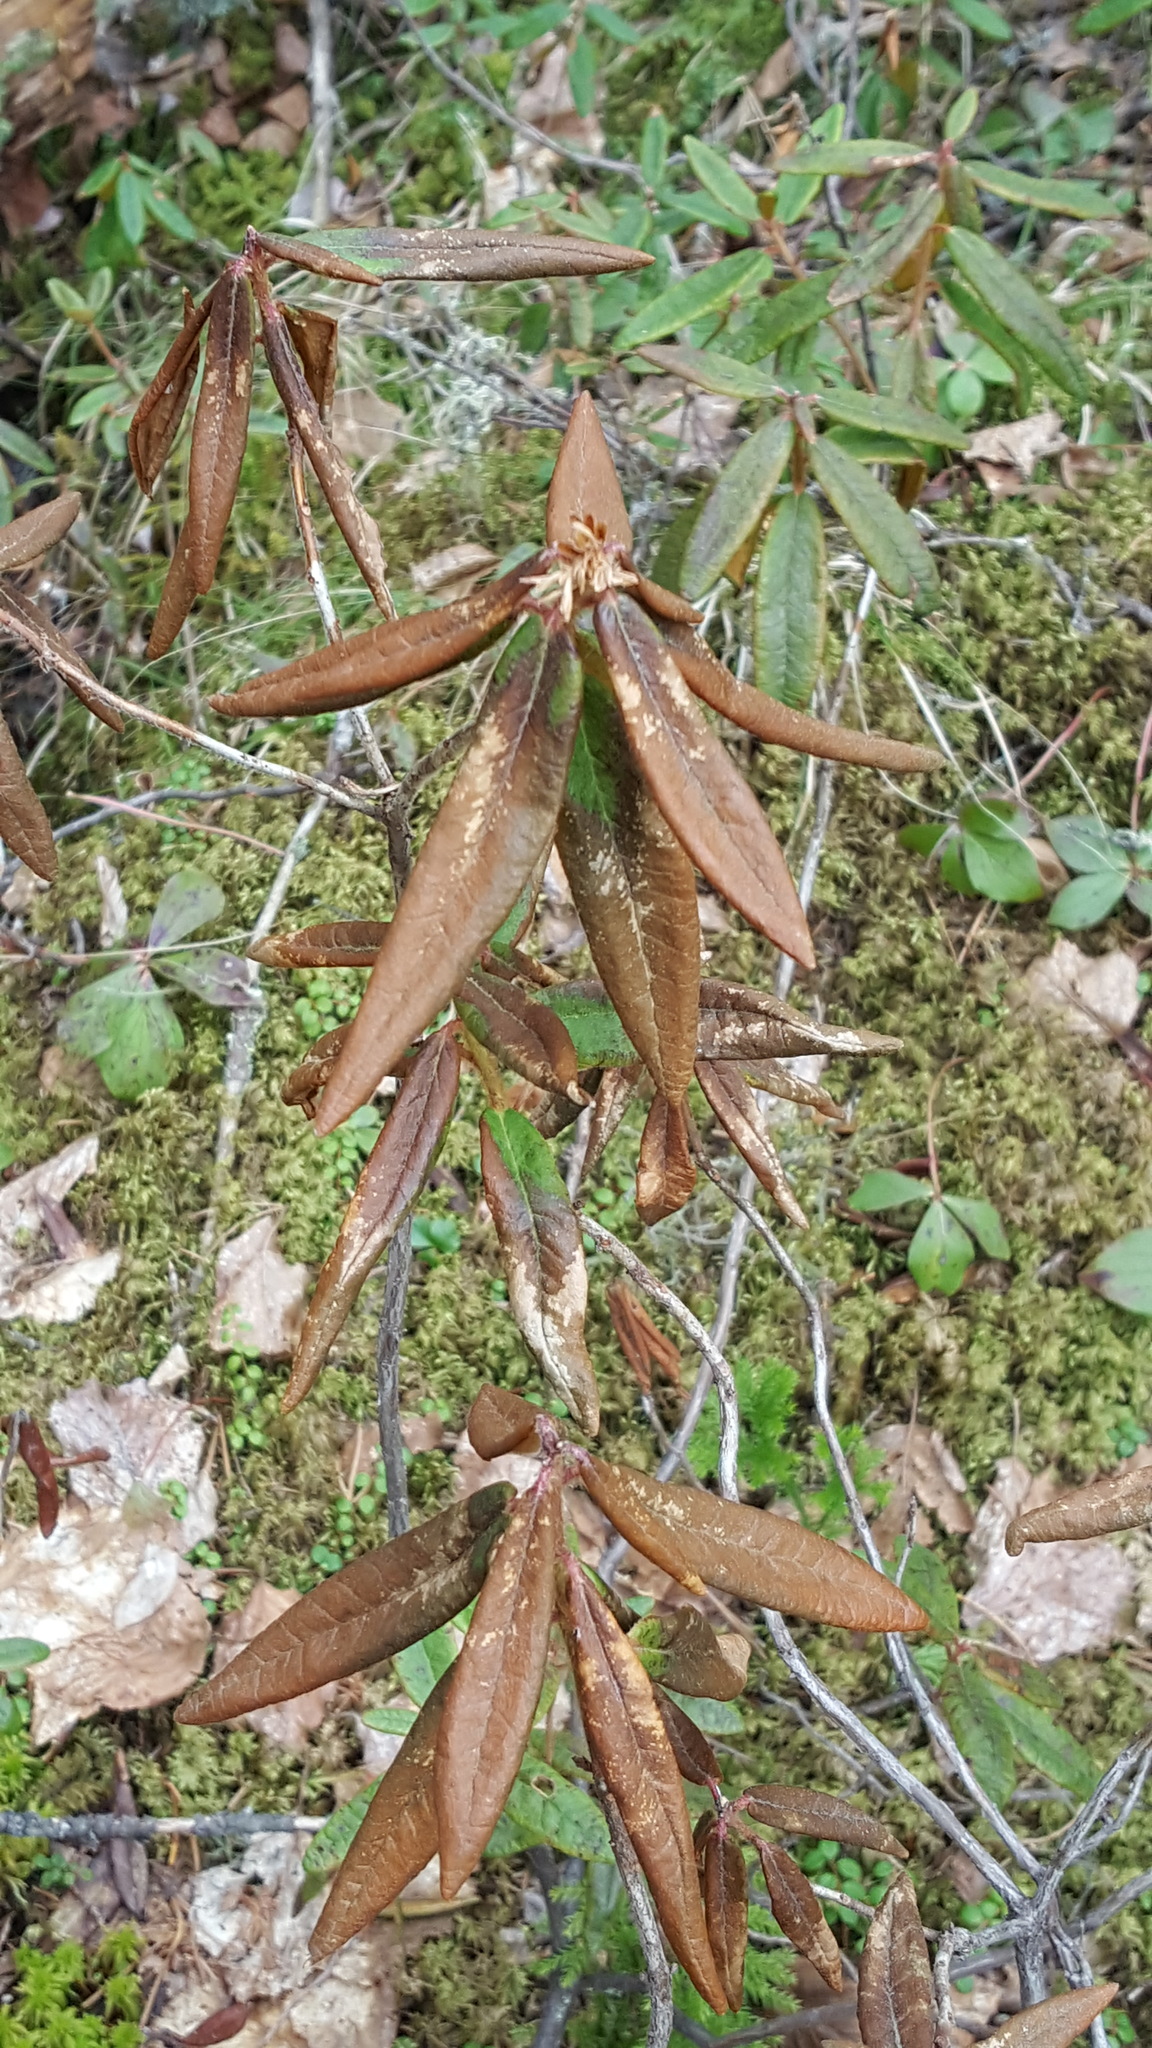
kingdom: Plantae
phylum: Tracheophyta
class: Magnoliopsida
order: Ericales
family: Ericaceae
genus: Rhododendron
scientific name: Rhododendron groenlandicum
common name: Bog labrador tea
